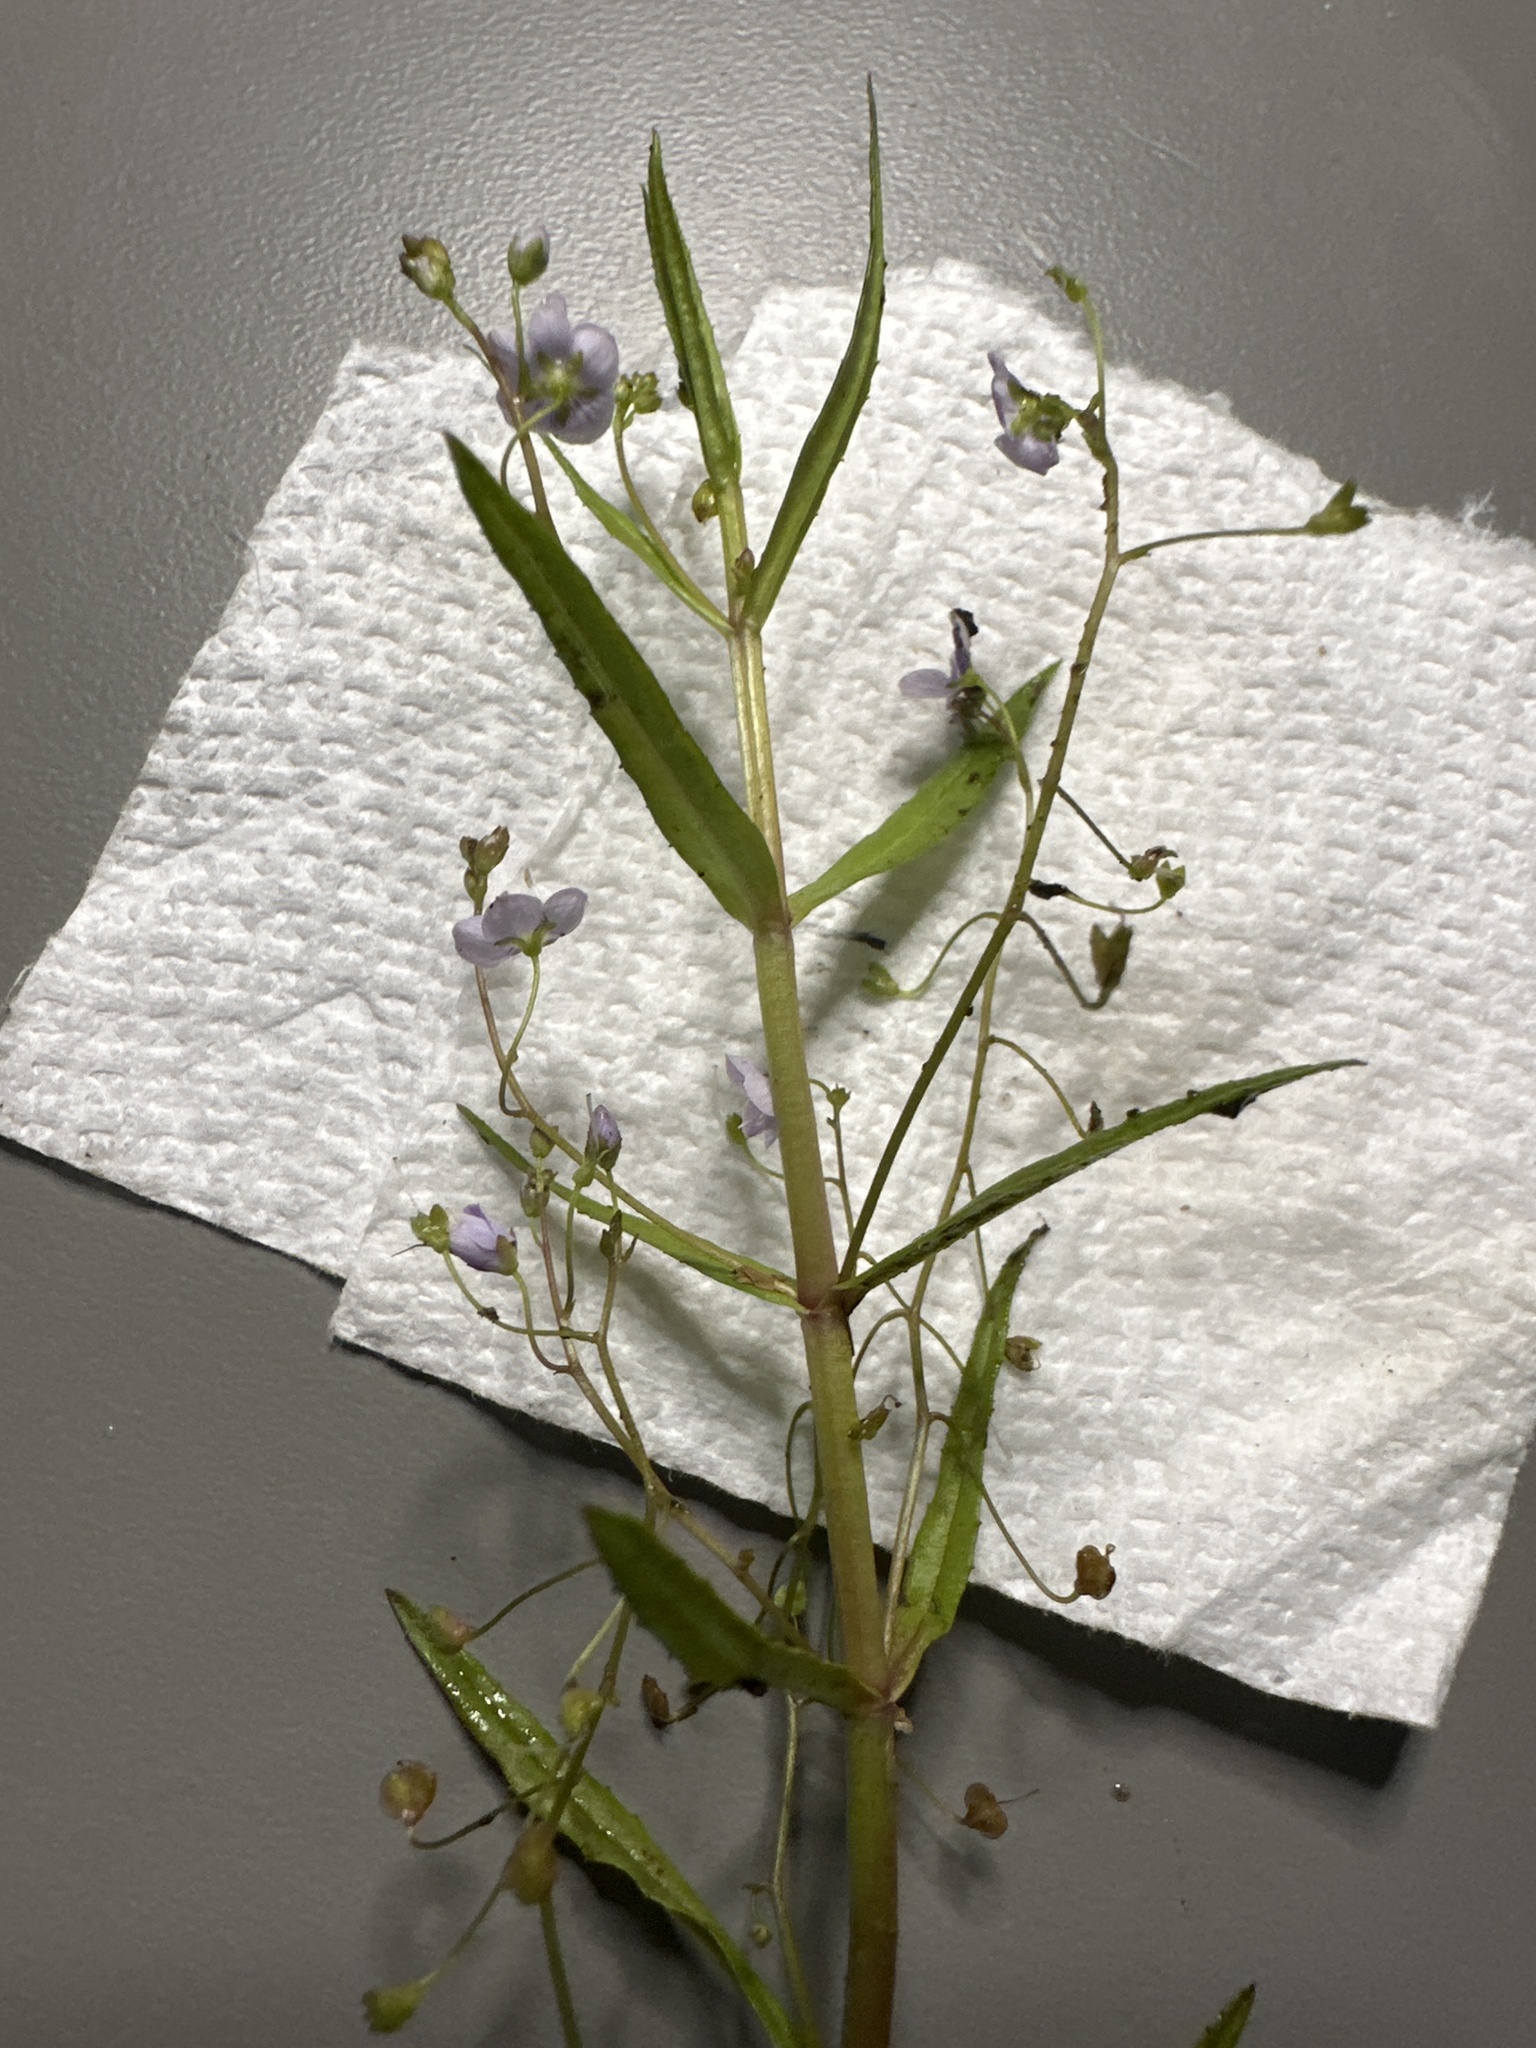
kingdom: Plantae
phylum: Tracheophyta
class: Magnoliopsida
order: Lamiales
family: Plantaginaceae
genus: Veronica
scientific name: Veronica scutellata
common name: Marsh speedwell
